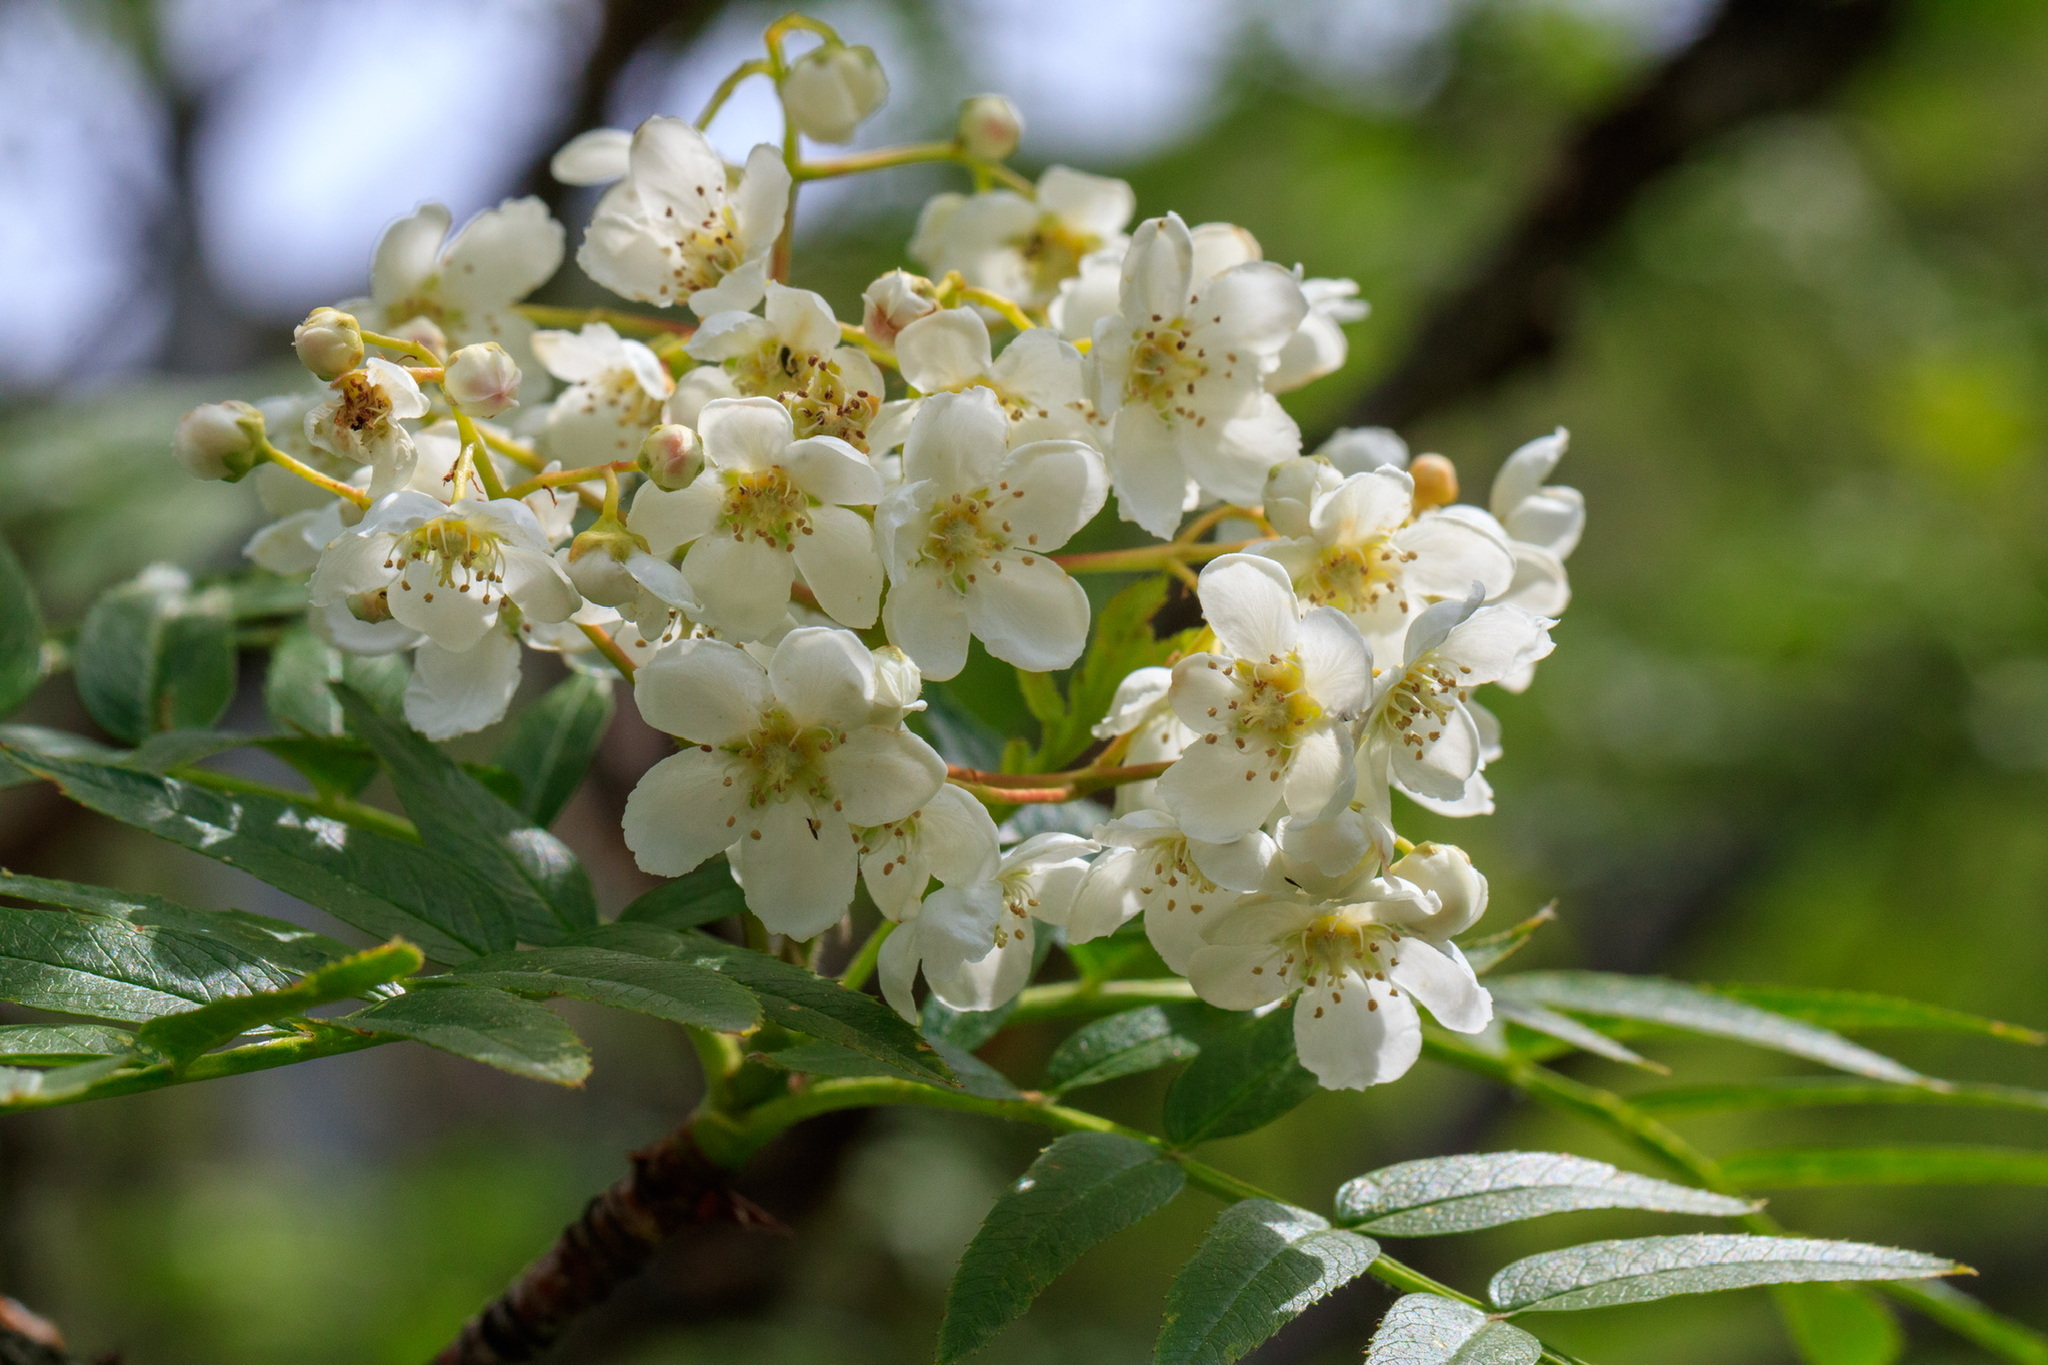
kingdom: Plantae
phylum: Tracheophyta
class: Magnoliopsida
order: Rosales
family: Rosaceae
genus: Sorbus
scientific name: Sorbus tianschanica
